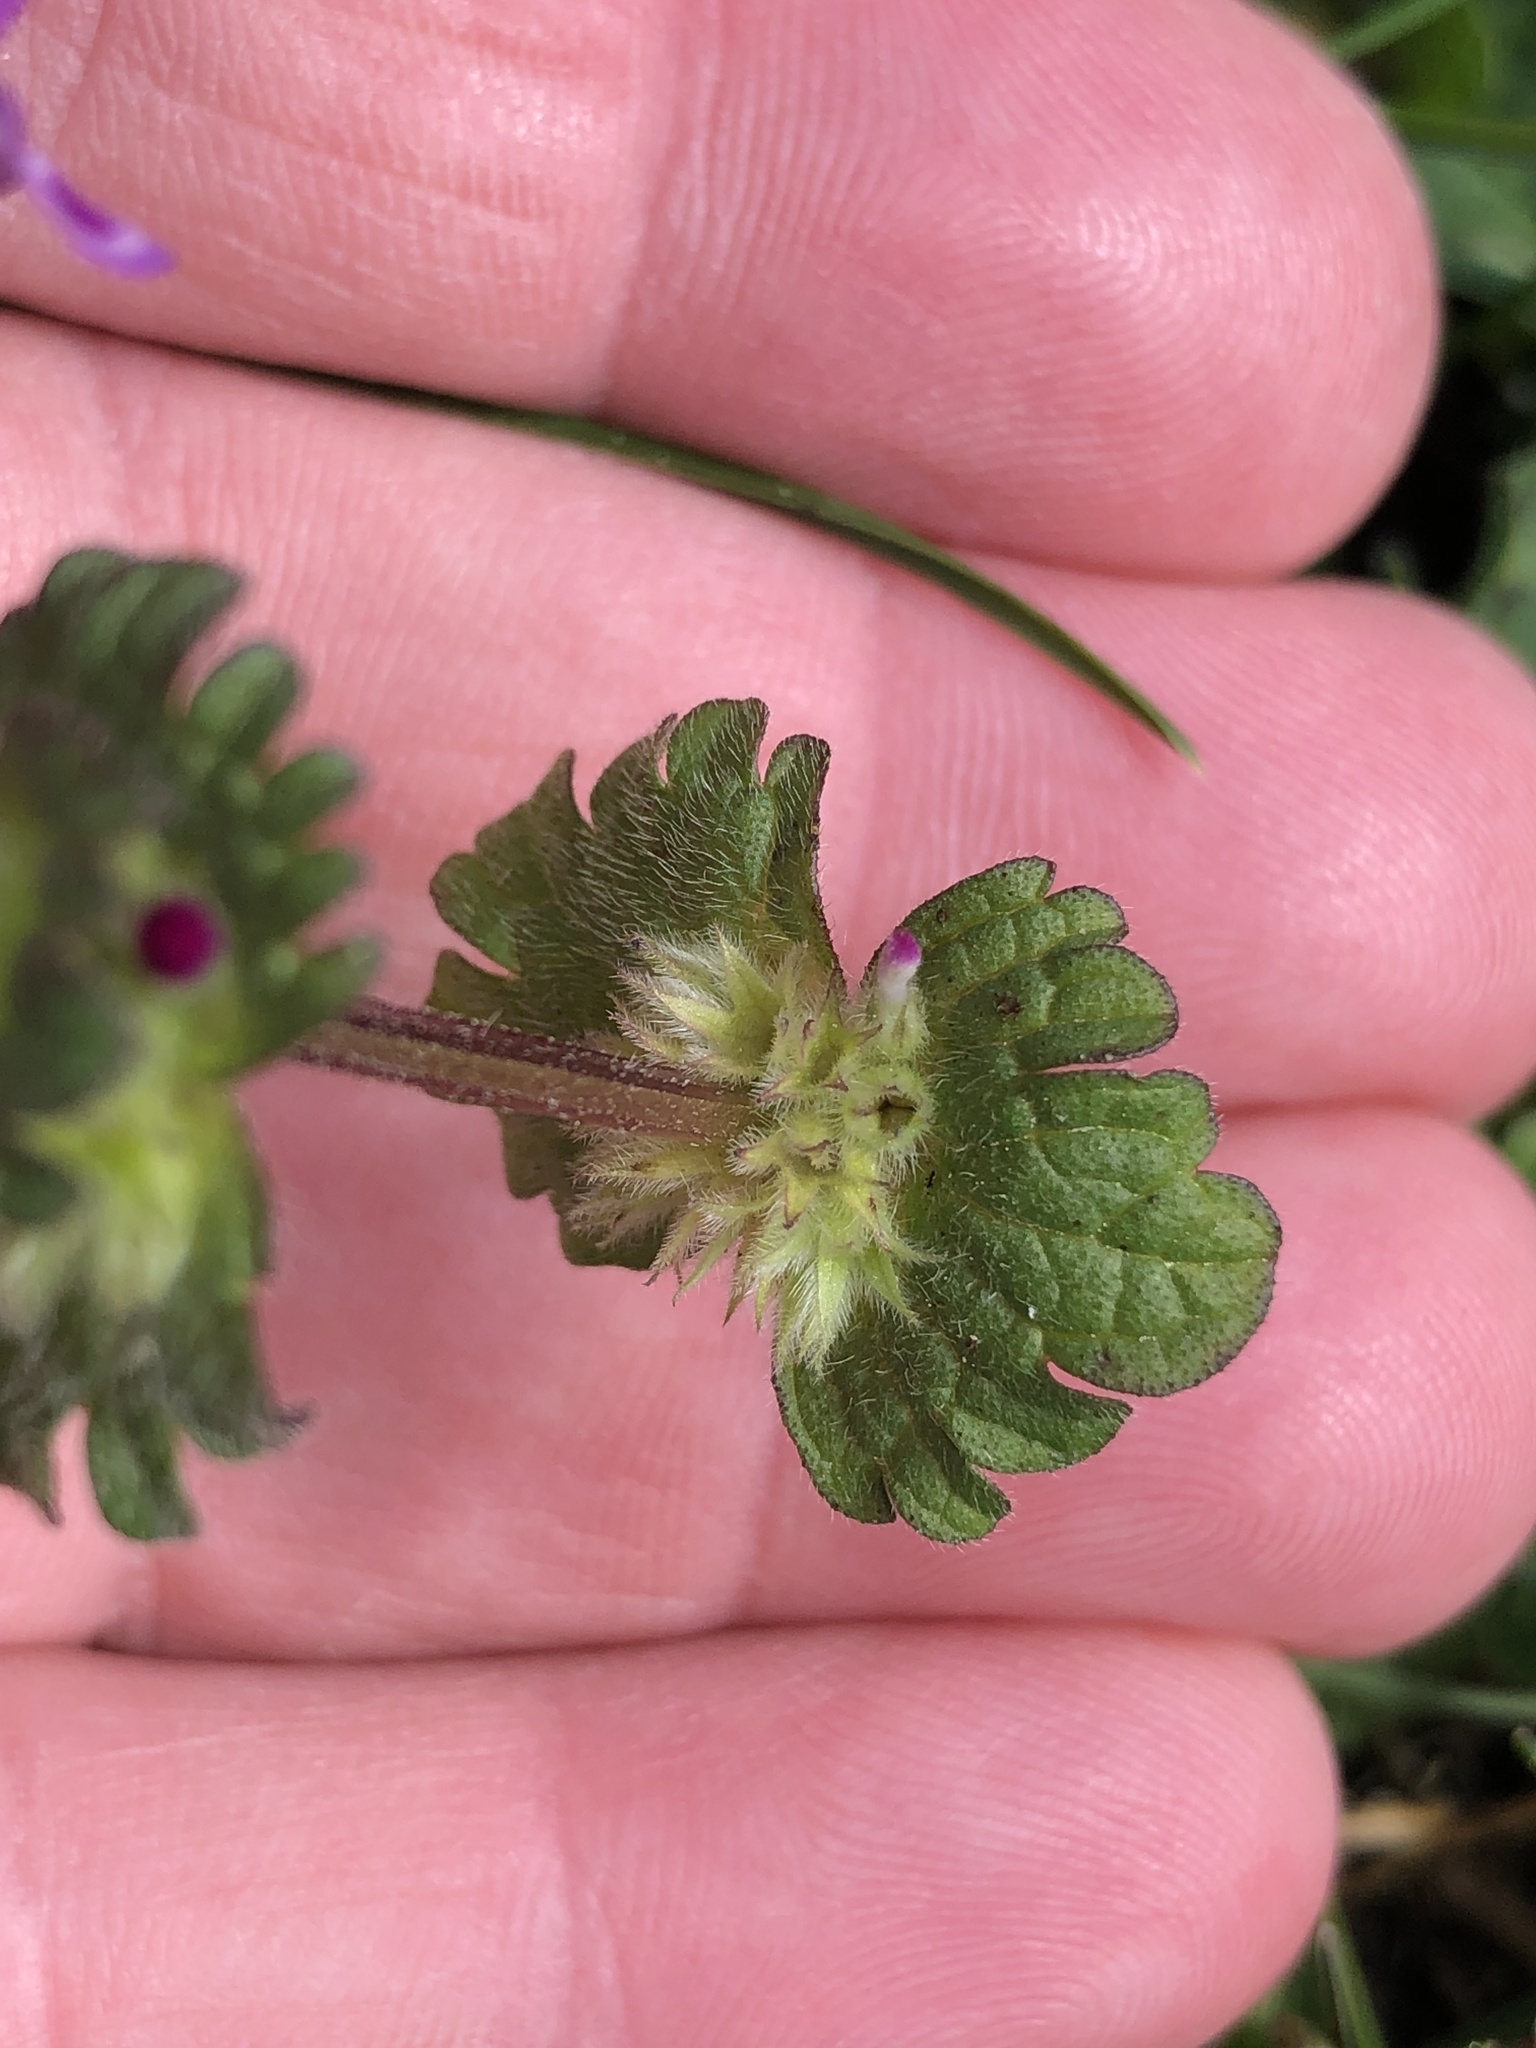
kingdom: Plantae
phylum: Tracheophyta
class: Magnoliopsida
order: Lamiales
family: Lamiaceae
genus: Lamium
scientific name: Lamium amplexicaule
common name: Henbit dead-nettle
